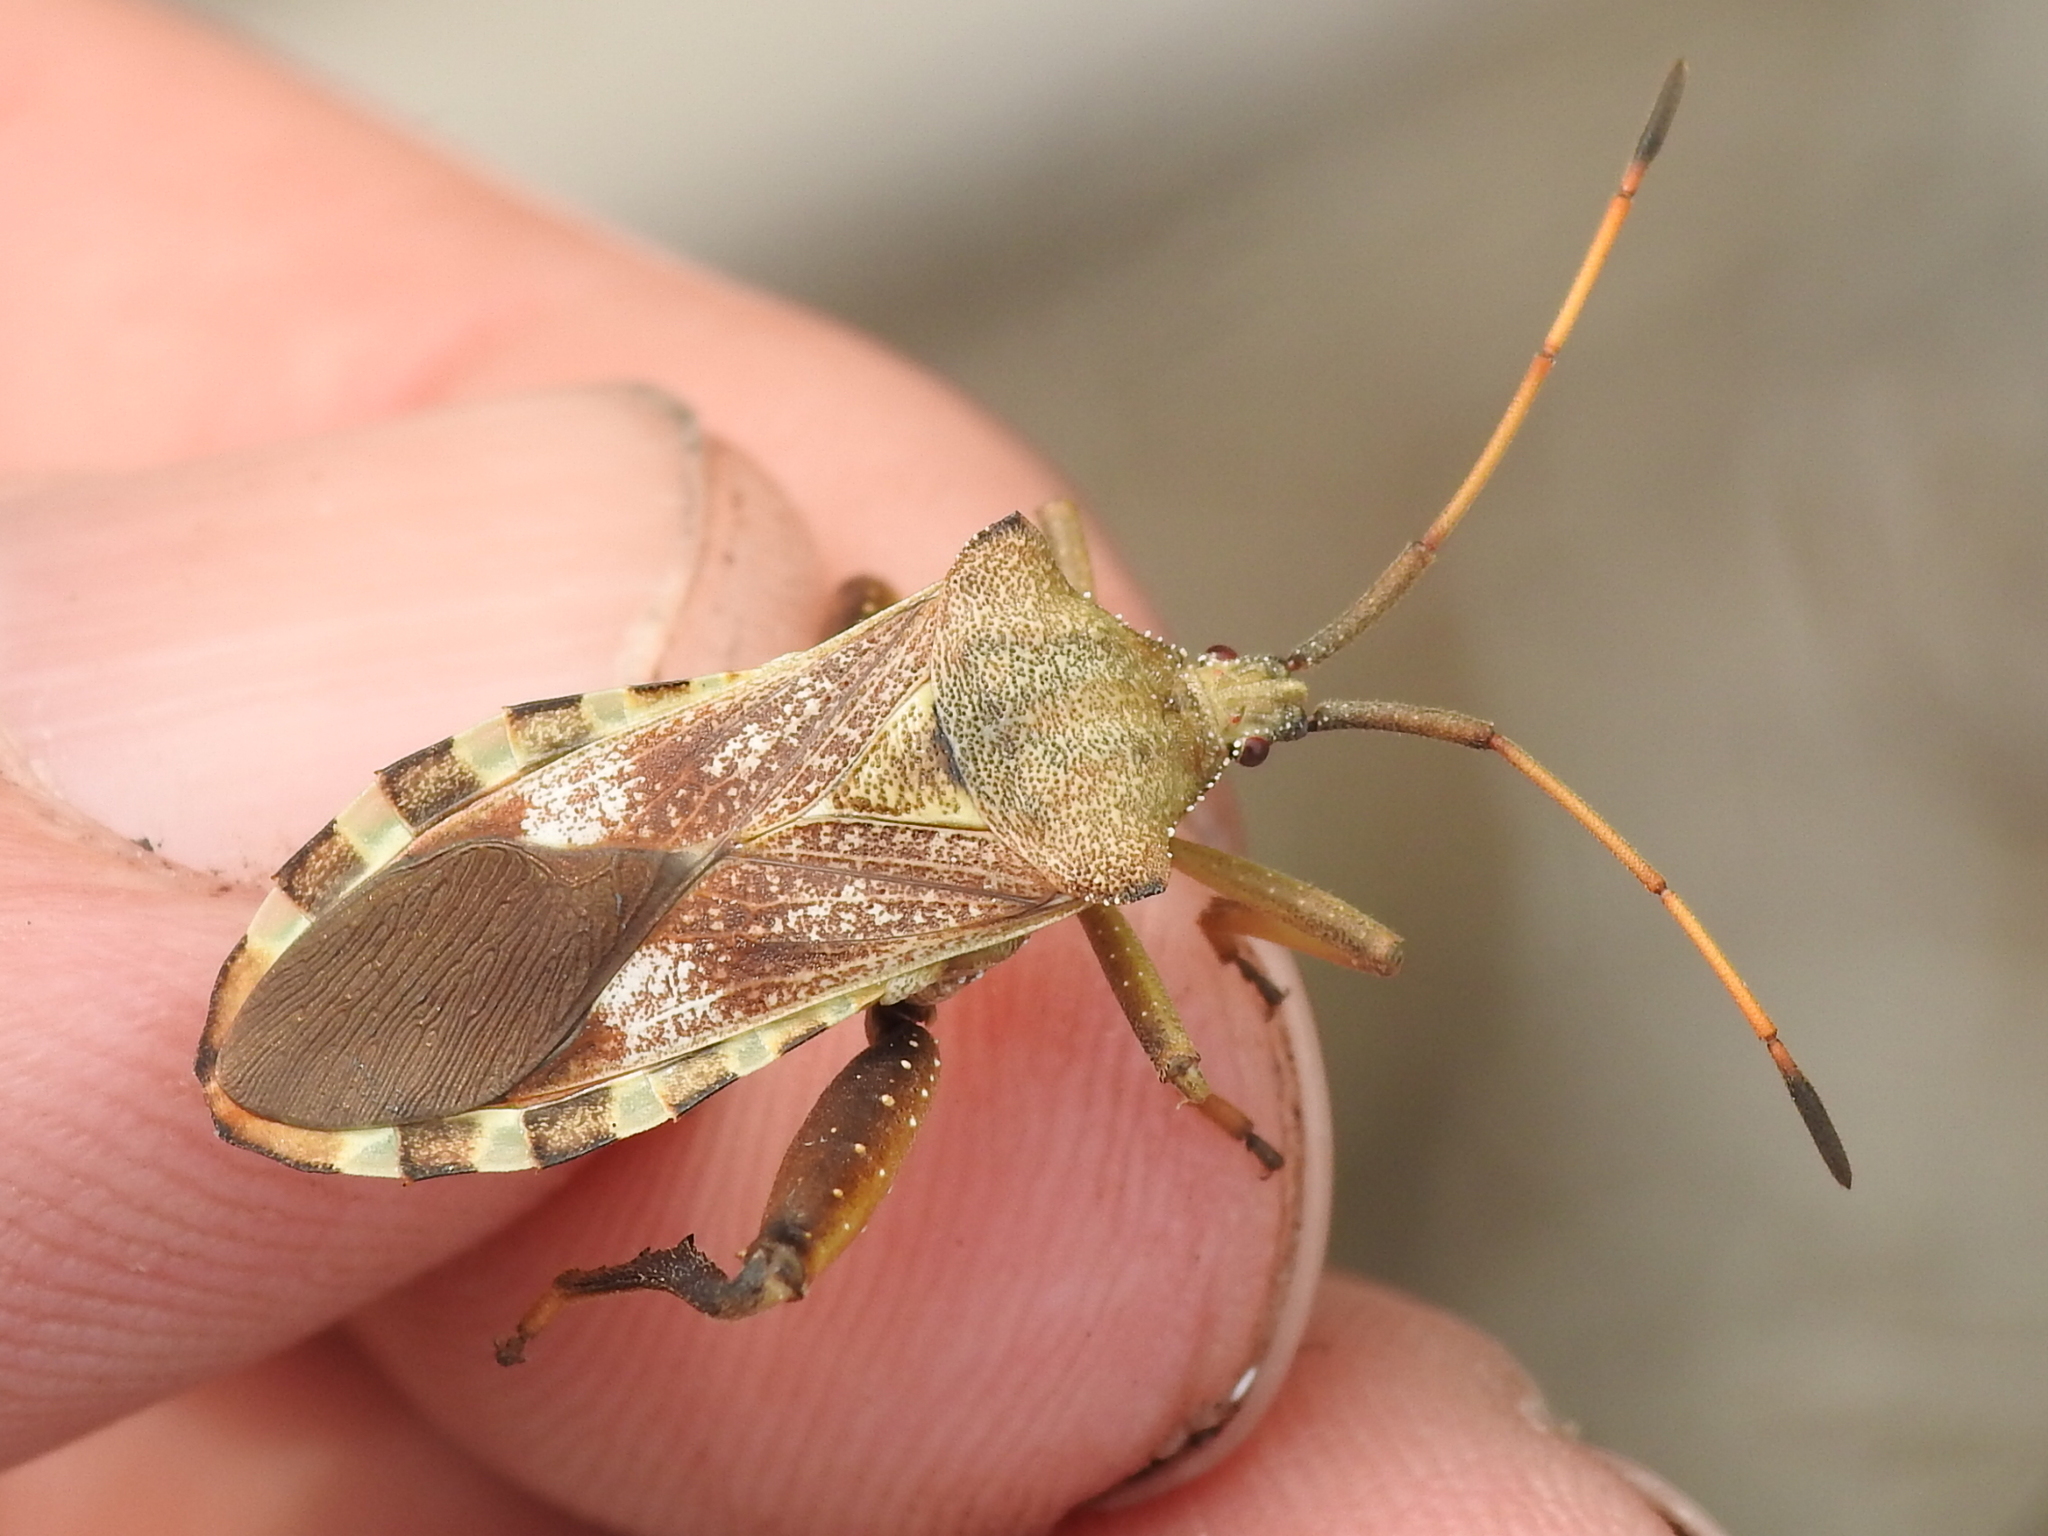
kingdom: Animalia
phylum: Arthropoda
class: Insecta
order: Hemiptera
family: Coreidae
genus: Mozena
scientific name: Mozena obtusa
